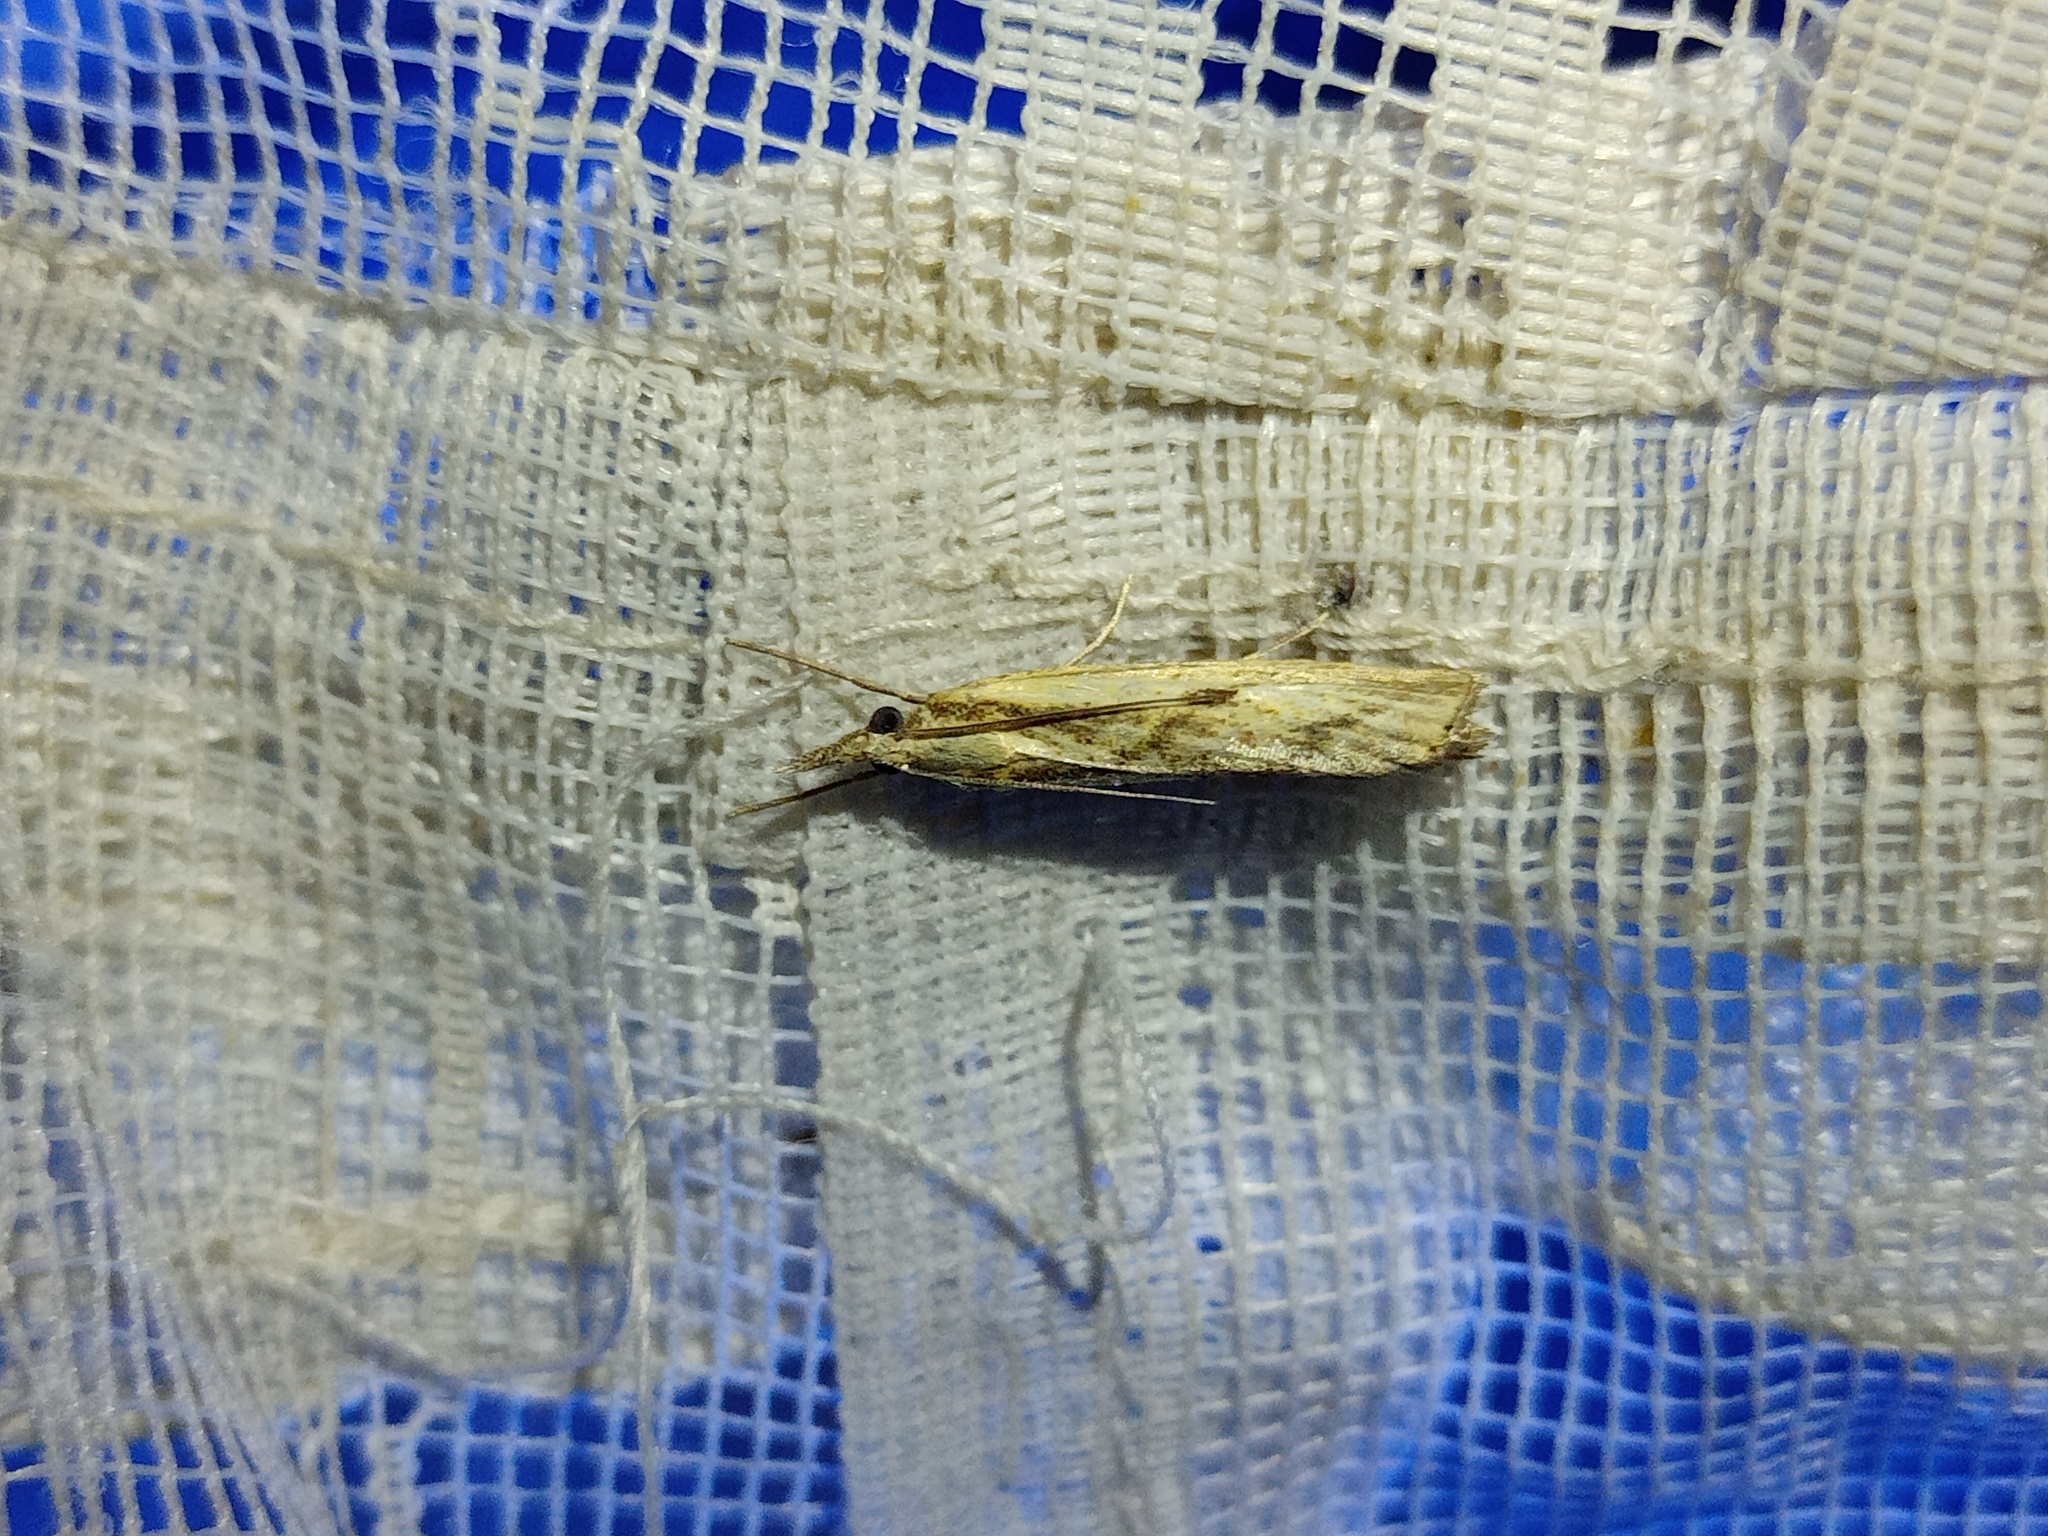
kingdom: Animalia
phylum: Arthropoda
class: Insecta
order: Lepidoptera
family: Crambidae
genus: Agriphila
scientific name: Agriphila inquinatella
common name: Barred grass-veneer
